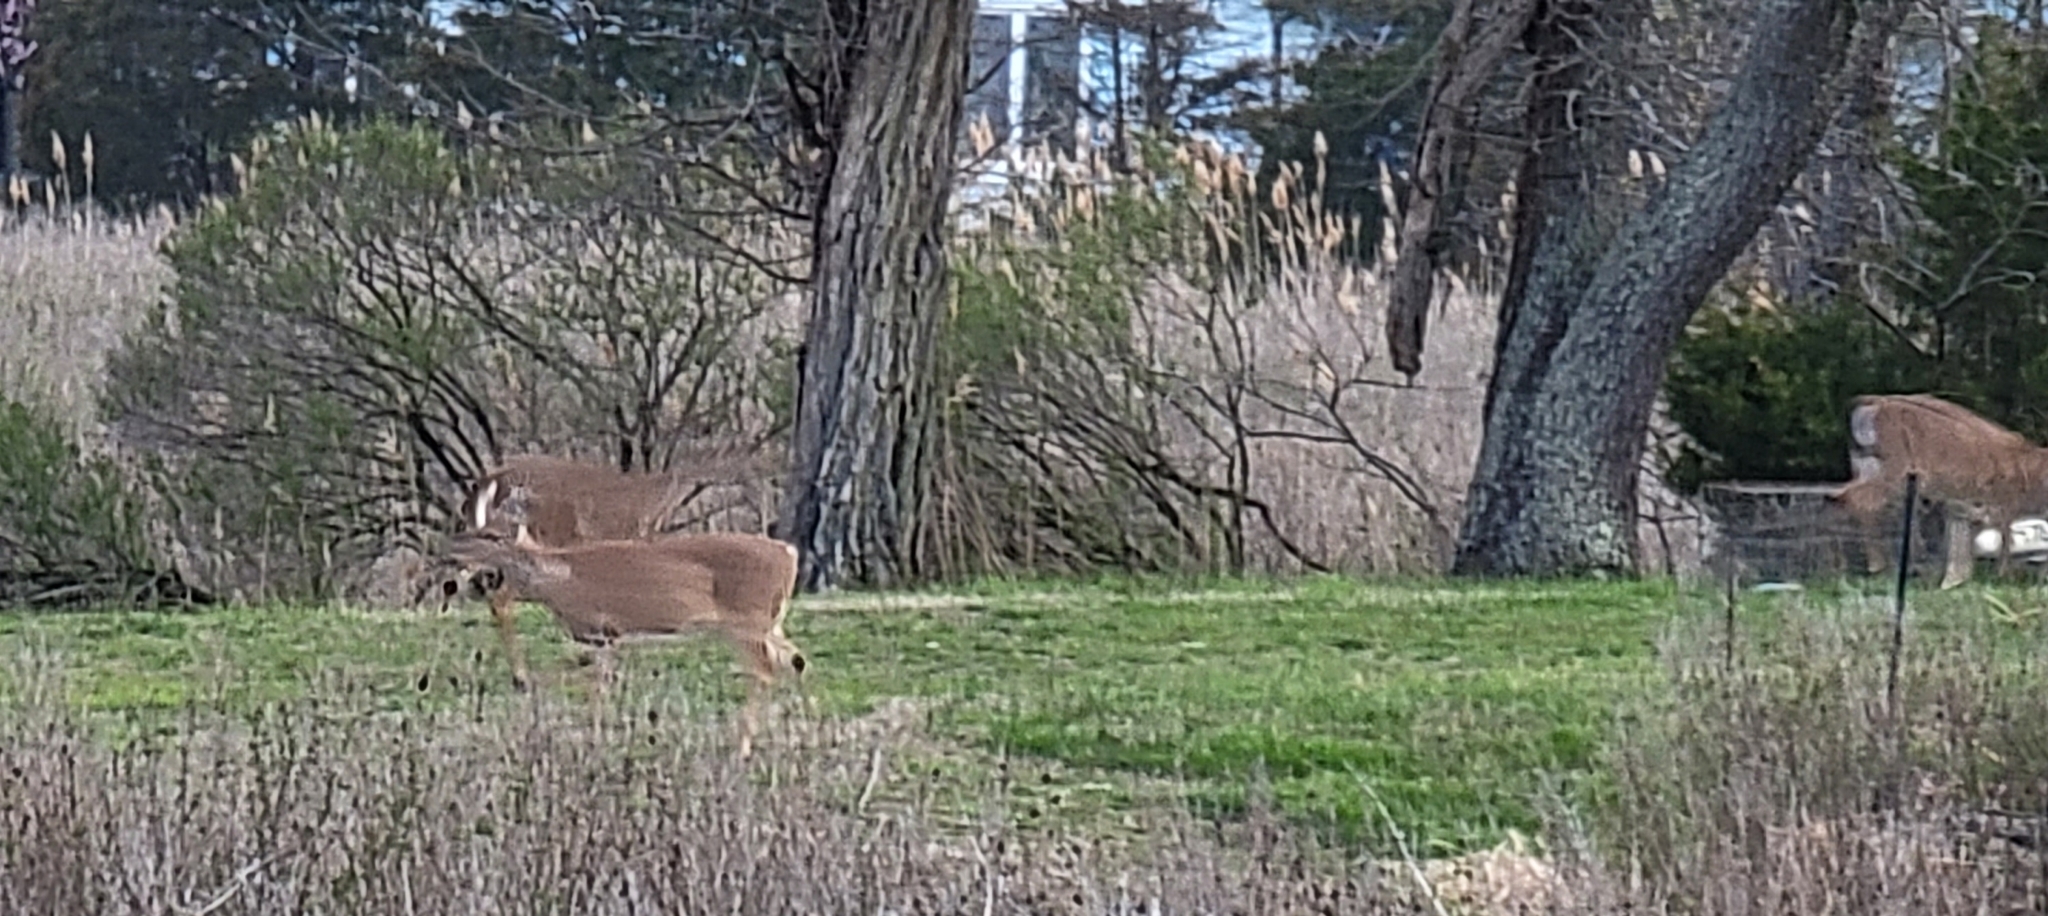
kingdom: Animalia
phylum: Chordata
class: Mammalia
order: Artiodactyla
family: Cervidae
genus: Odocoileus
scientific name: Odocoileus virginianus
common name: White-tailed deer
